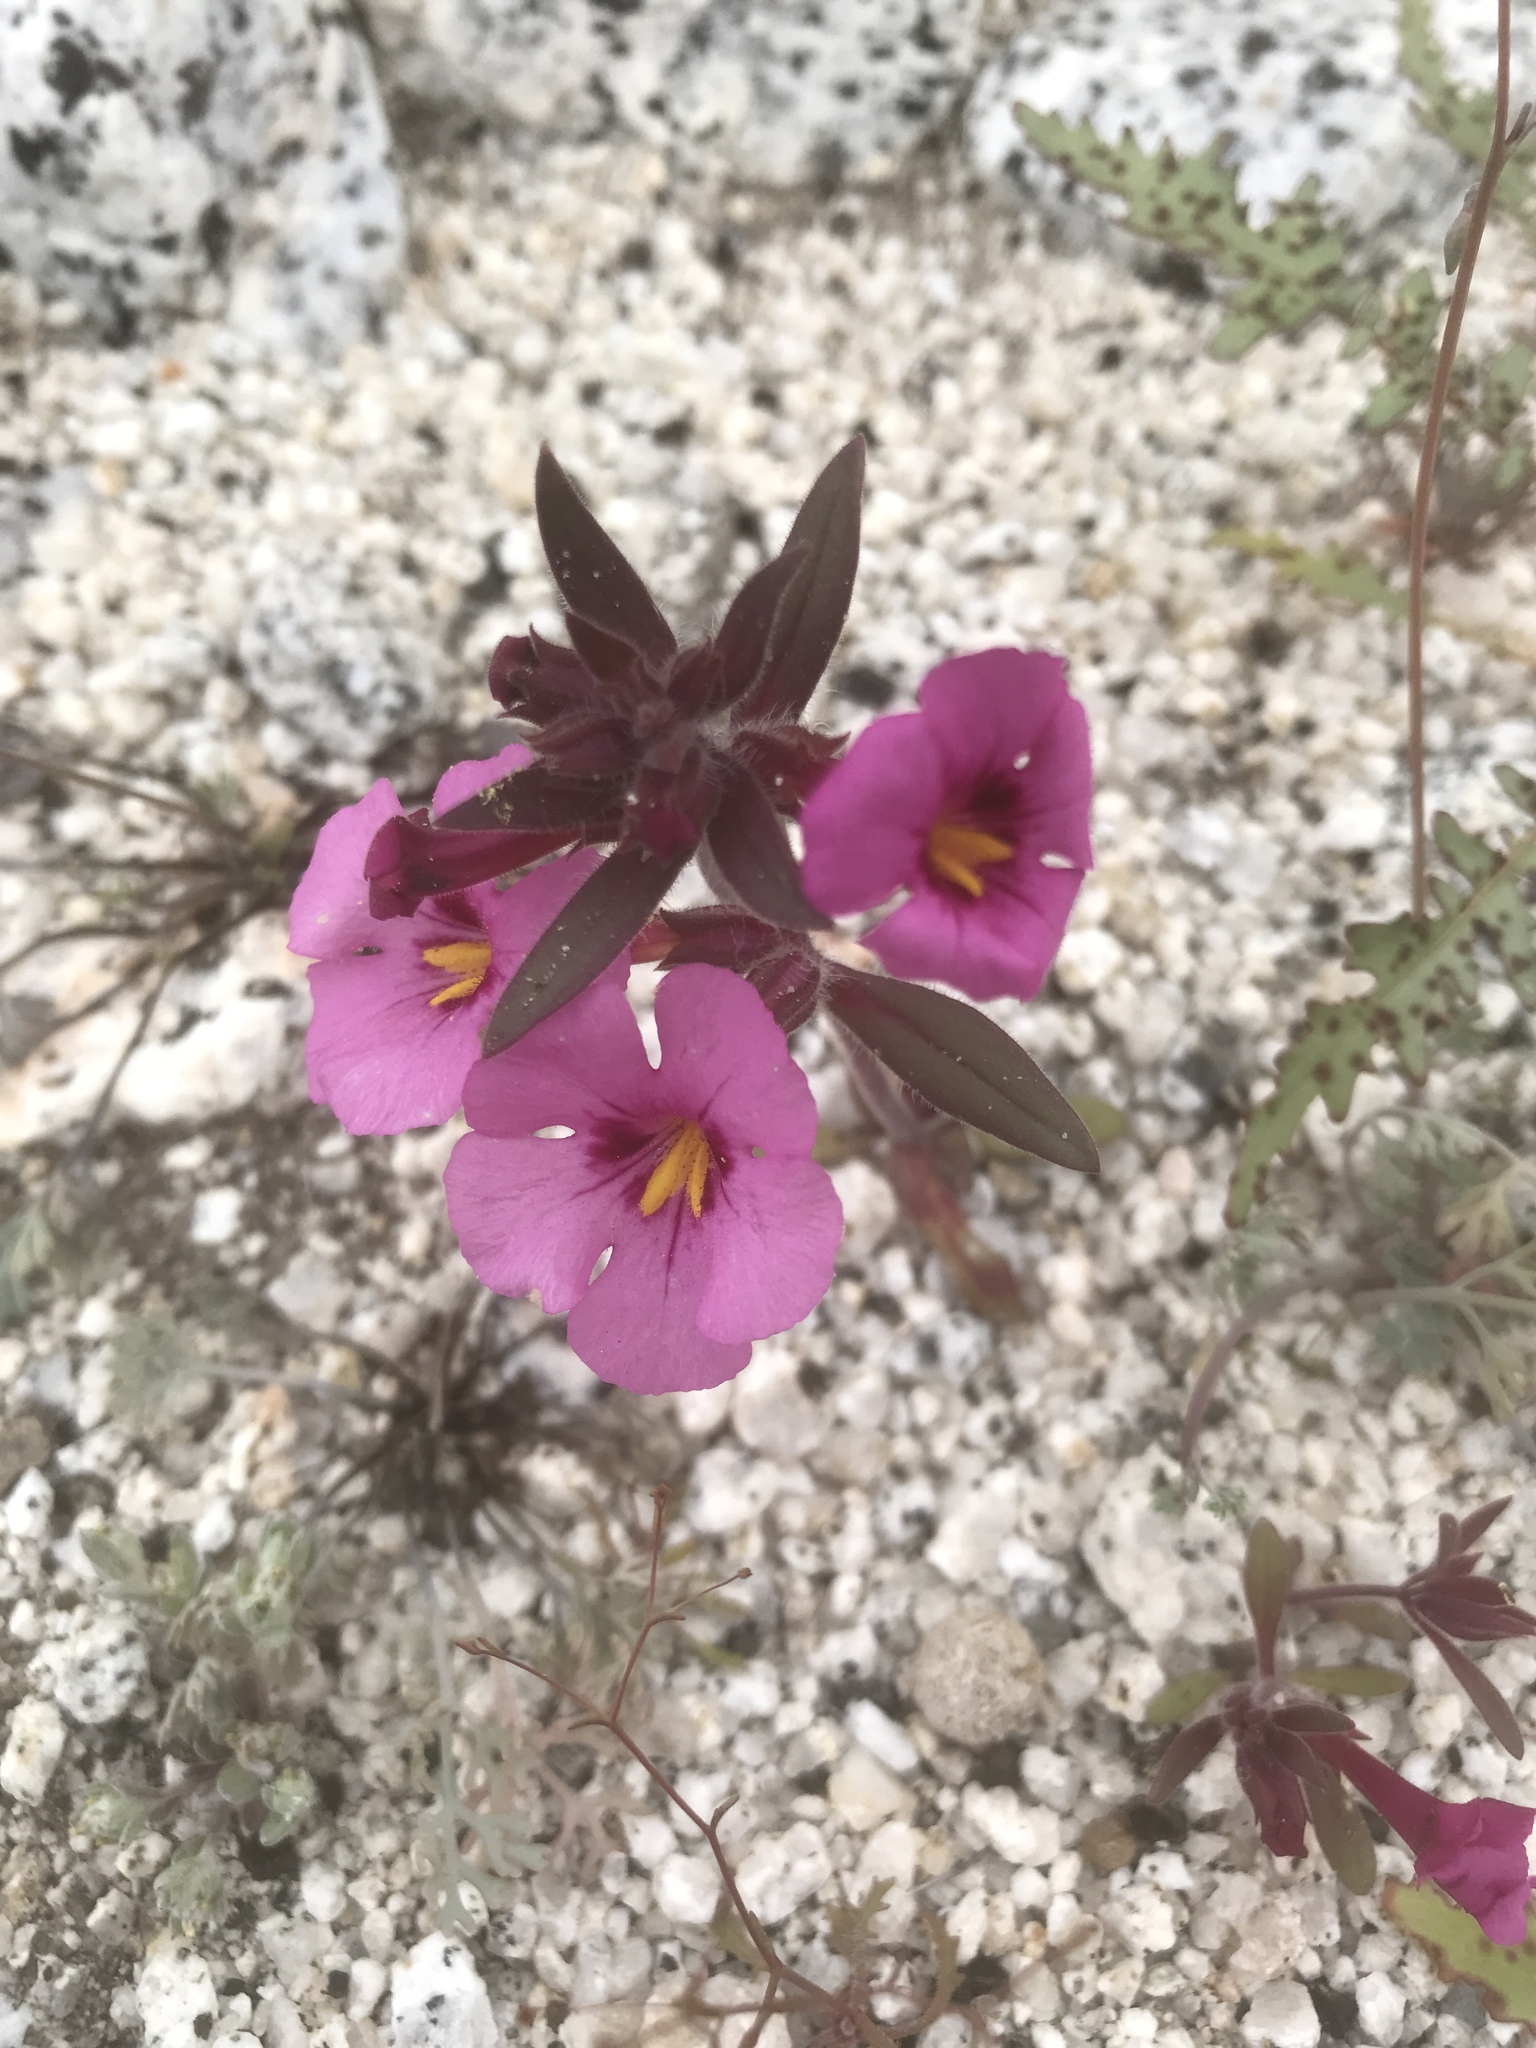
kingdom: Plantae
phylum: Tracheophyta
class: Magnoliopsida
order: Lamiales
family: Phrymaceae
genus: Diplacus
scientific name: Diplacus bigelovii
